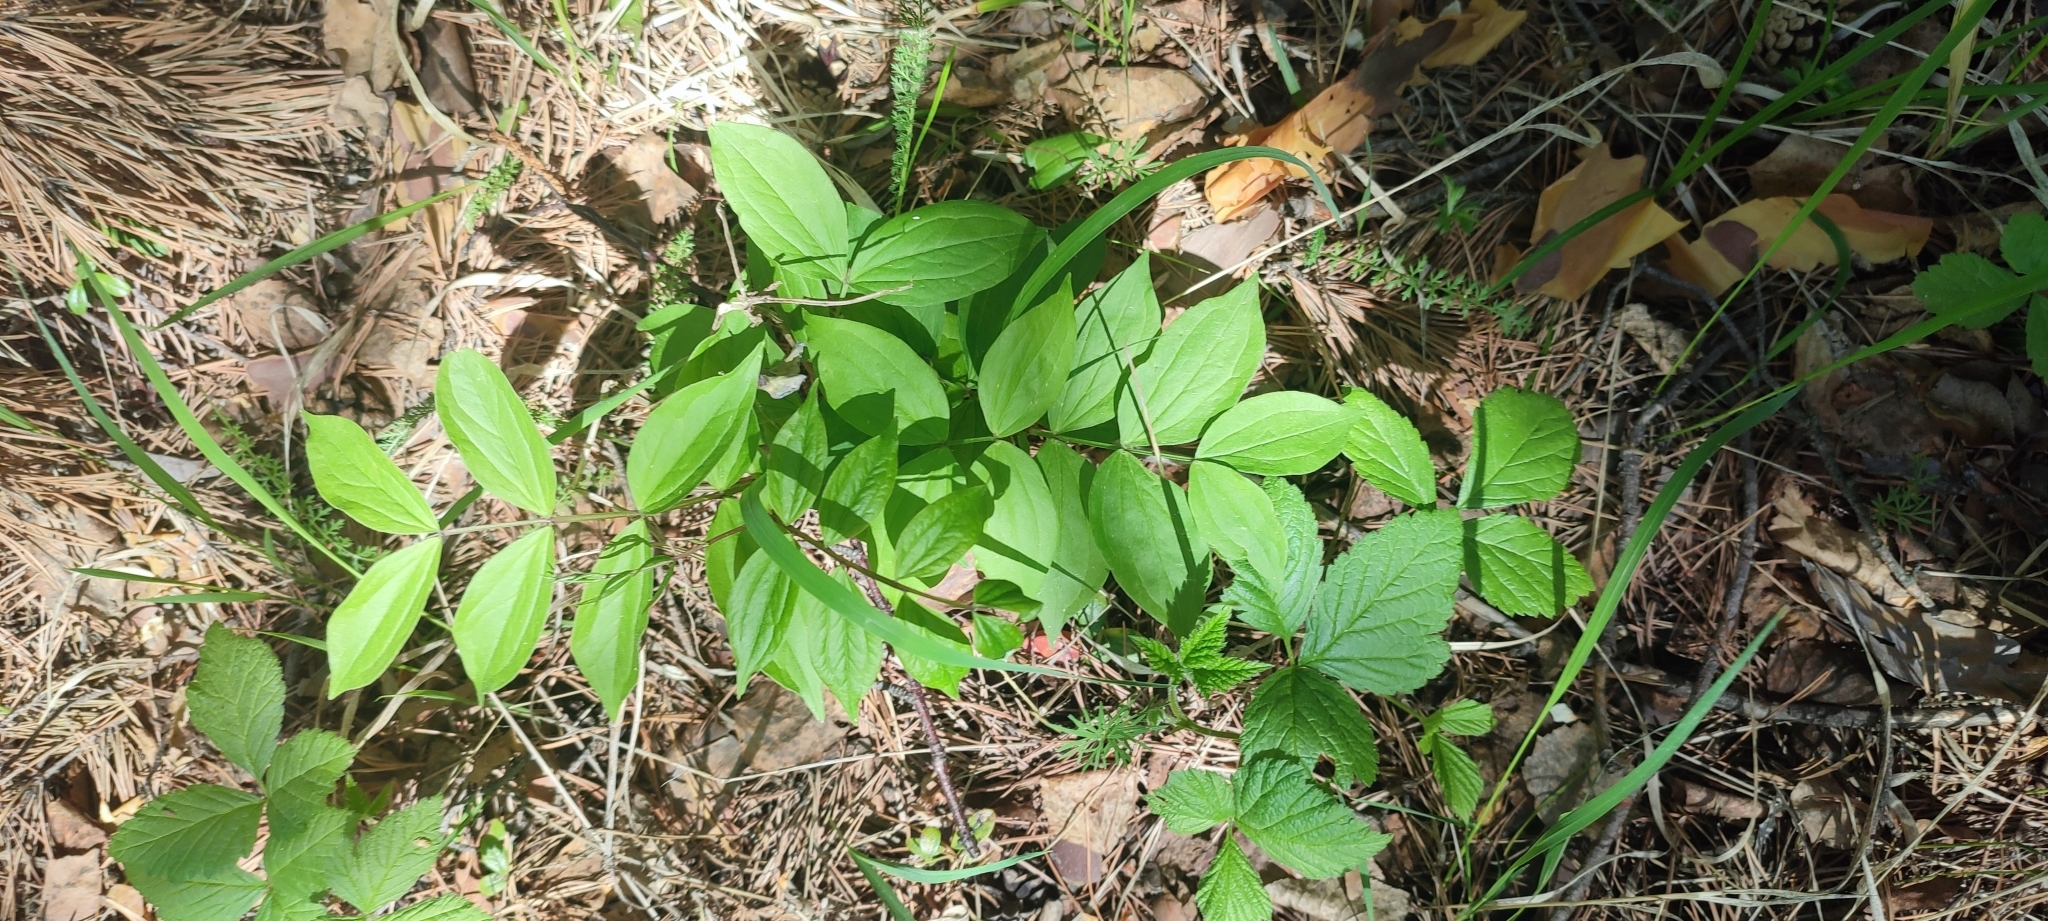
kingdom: Plantae
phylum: Tracheophyta
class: Magnoliopsida
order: Fabales
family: Fabaceae
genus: Lathyrus
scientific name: Lathyrus vernus
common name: Spring pea
